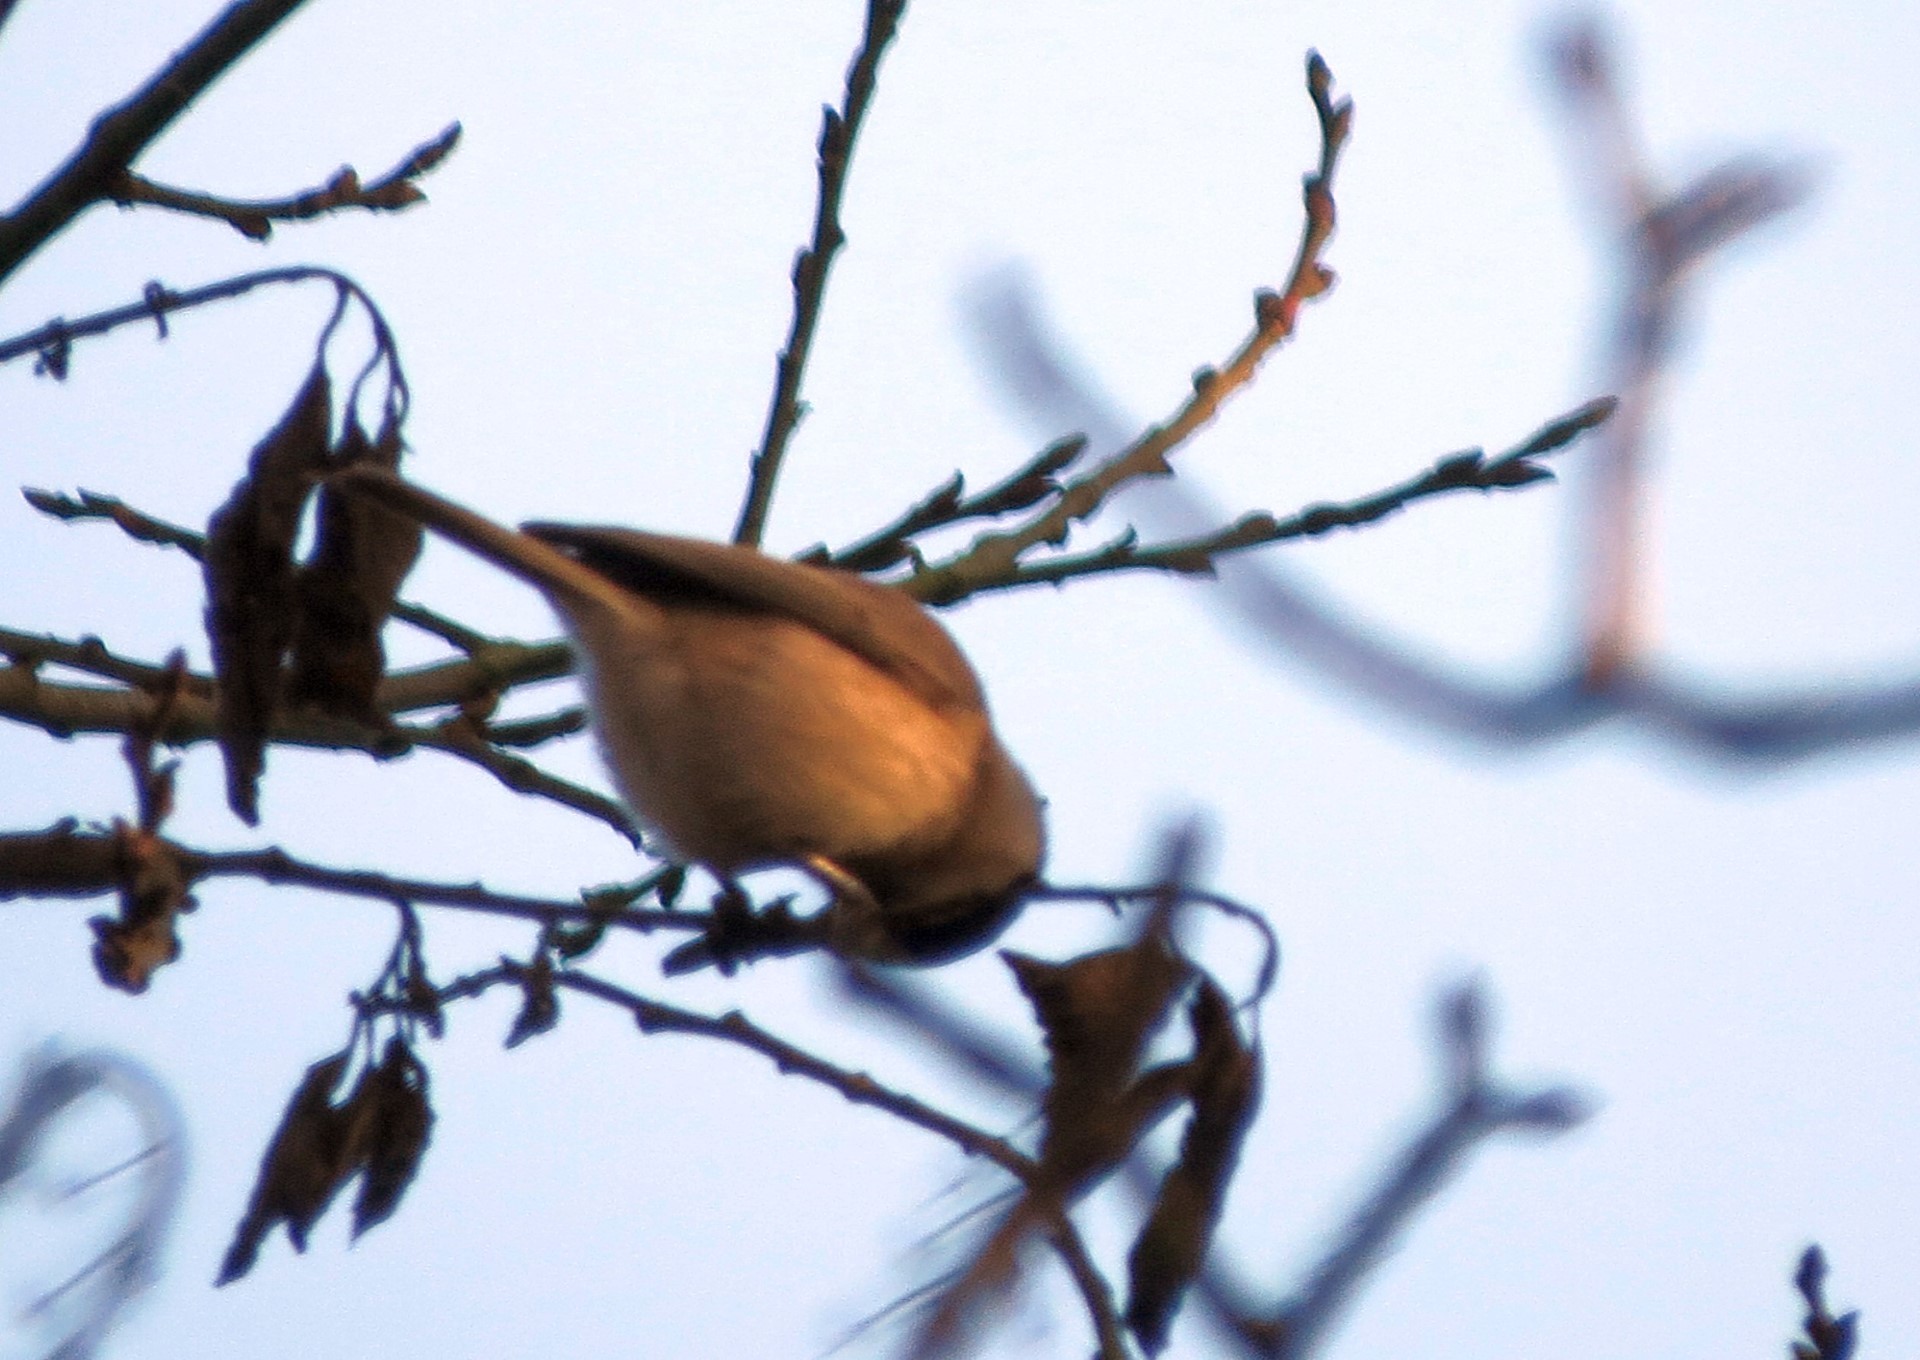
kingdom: Animalia
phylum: Chordata
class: Aves
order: Passeriformes
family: Paridae
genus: Poecile
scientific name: Poecile
